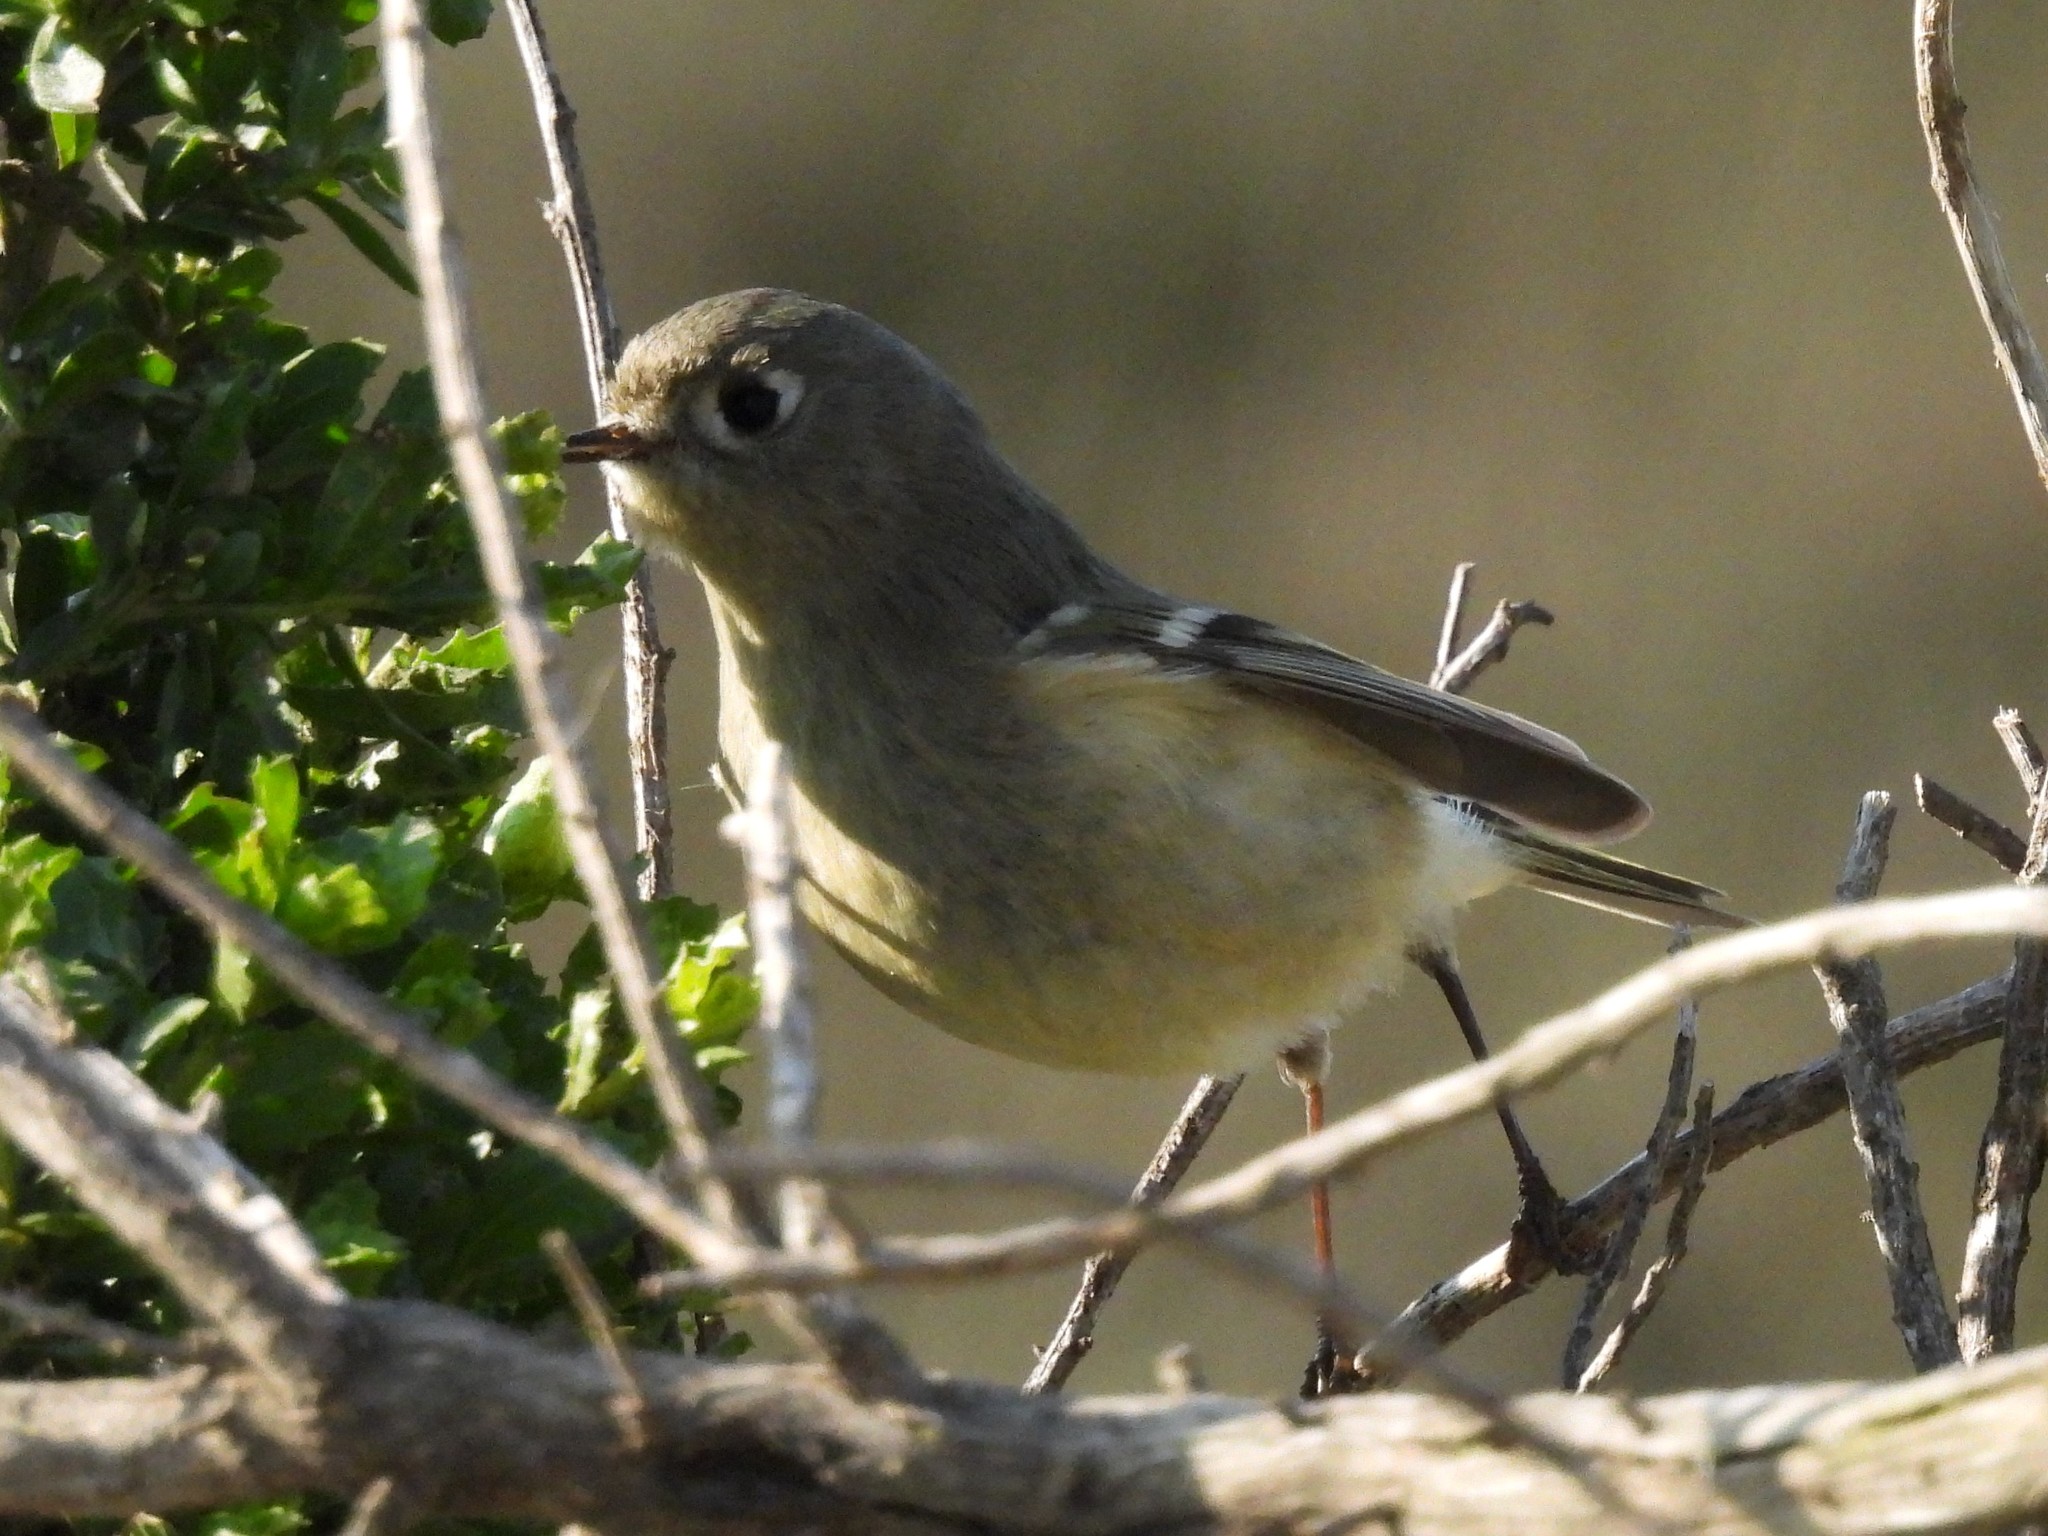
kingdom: Animalia
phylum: Chordata
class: Aves
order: Passeriformes
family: Regulidae
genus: Regulus
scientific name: Regulus calendula
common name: Ruby-crowned kinglet
